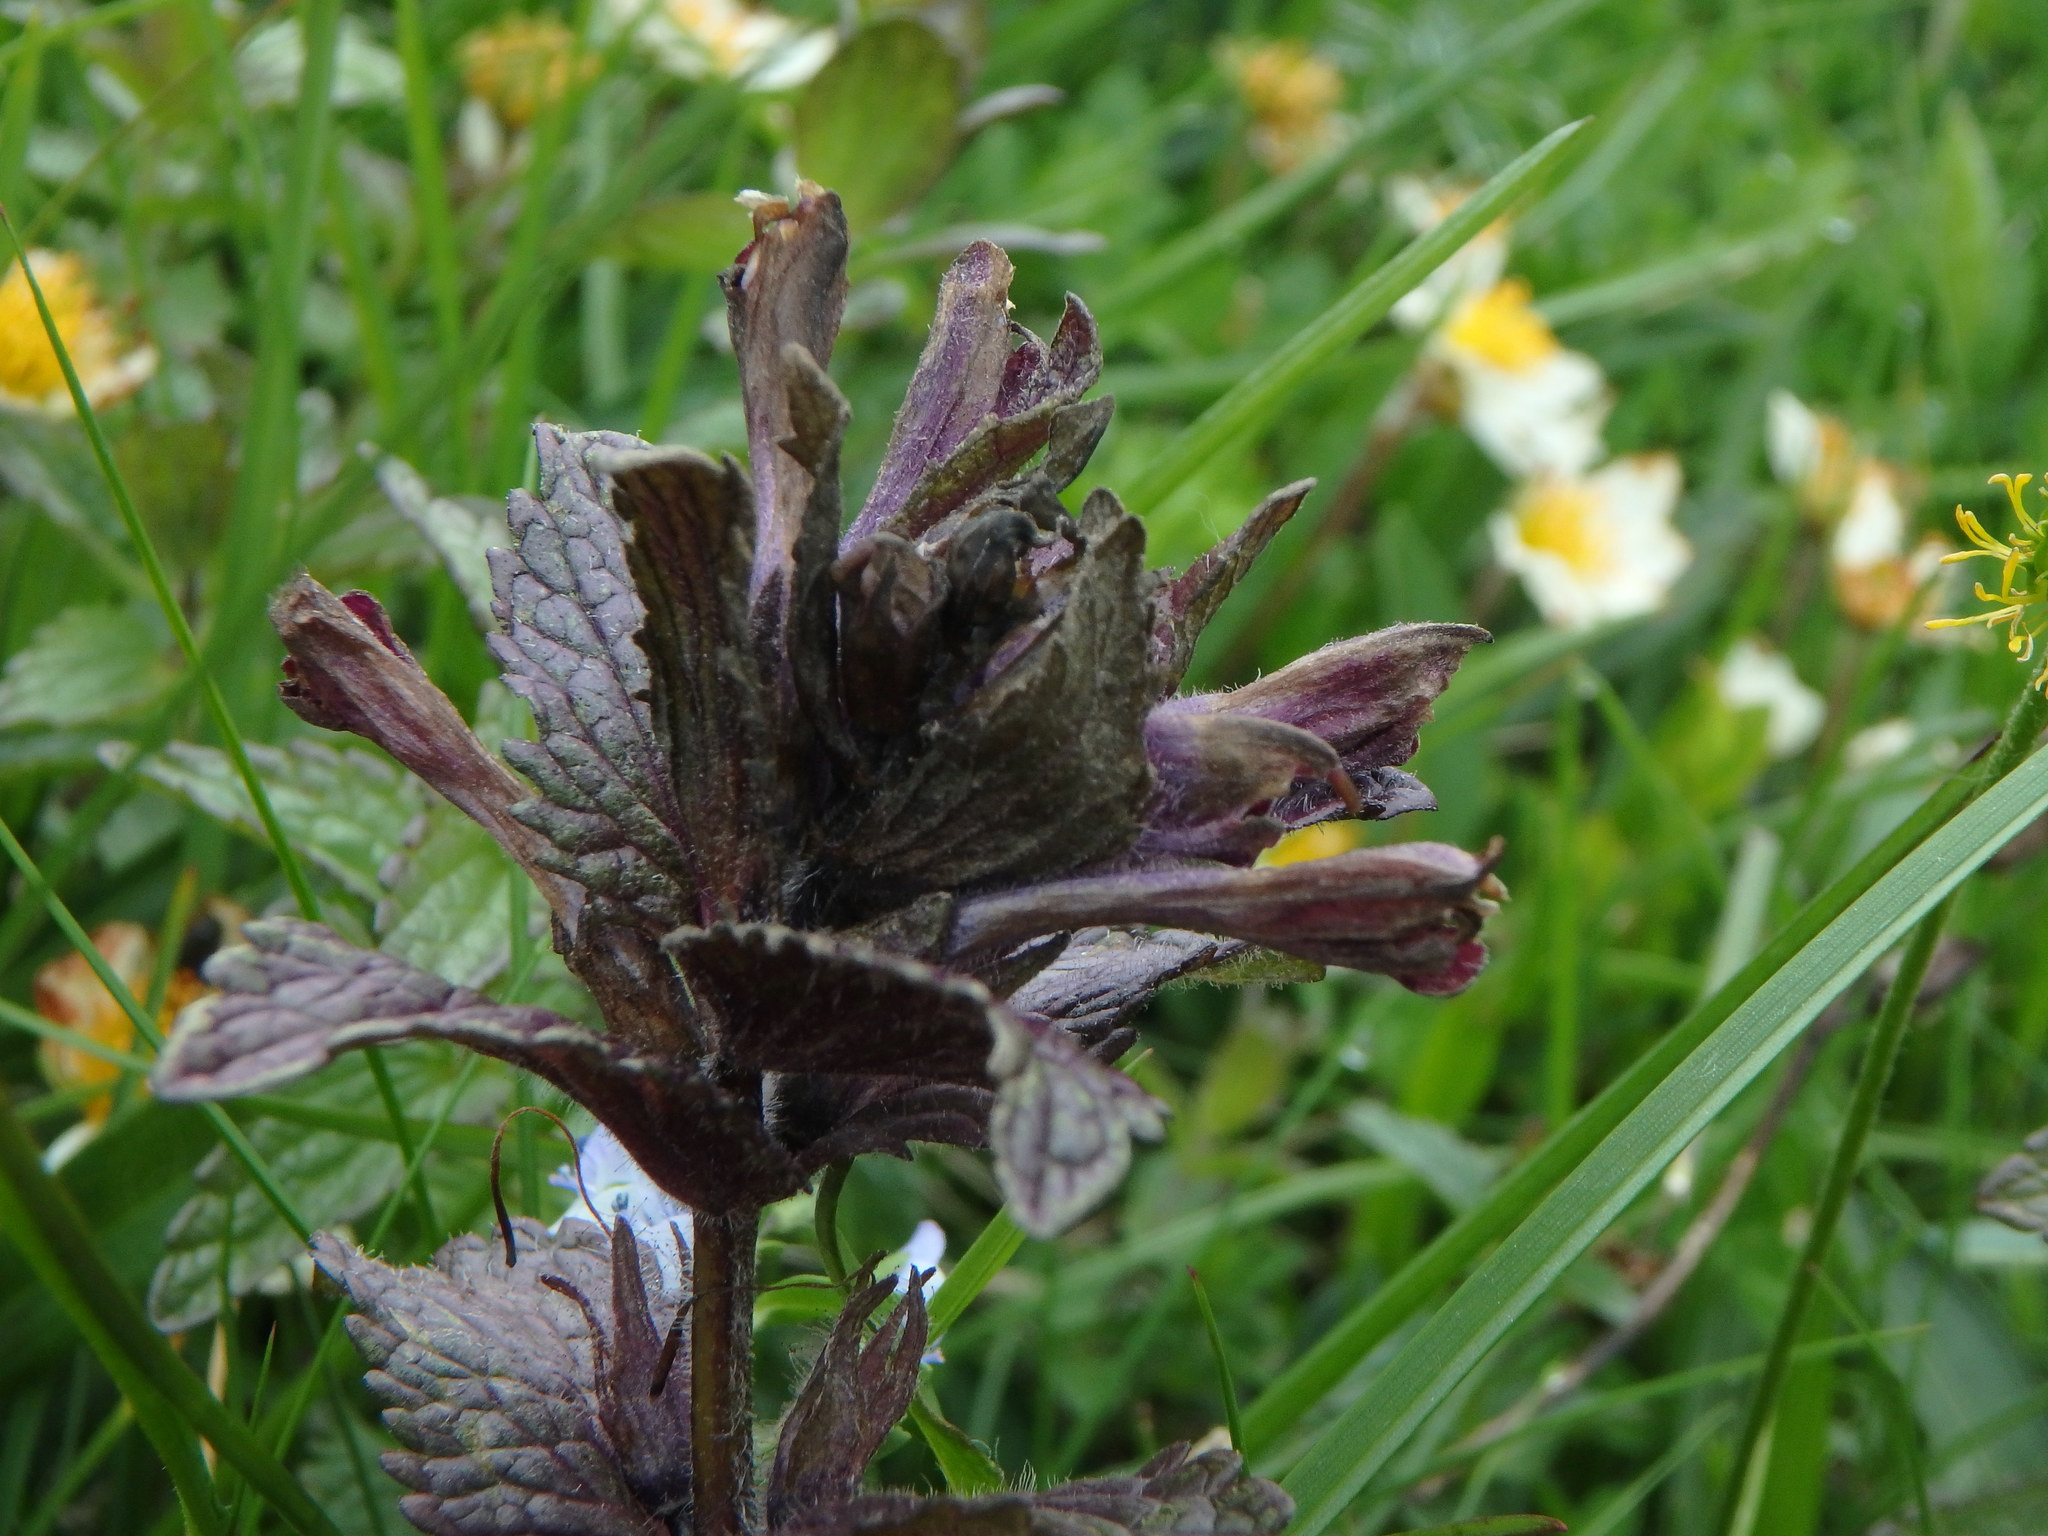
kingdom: Plantae
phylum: Tracheophyta
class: Magnoliopsida
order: Lamiales
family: Orobanchaceae
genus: Bartsia
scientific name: Bartsia alpina
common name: Alpine bartsia
